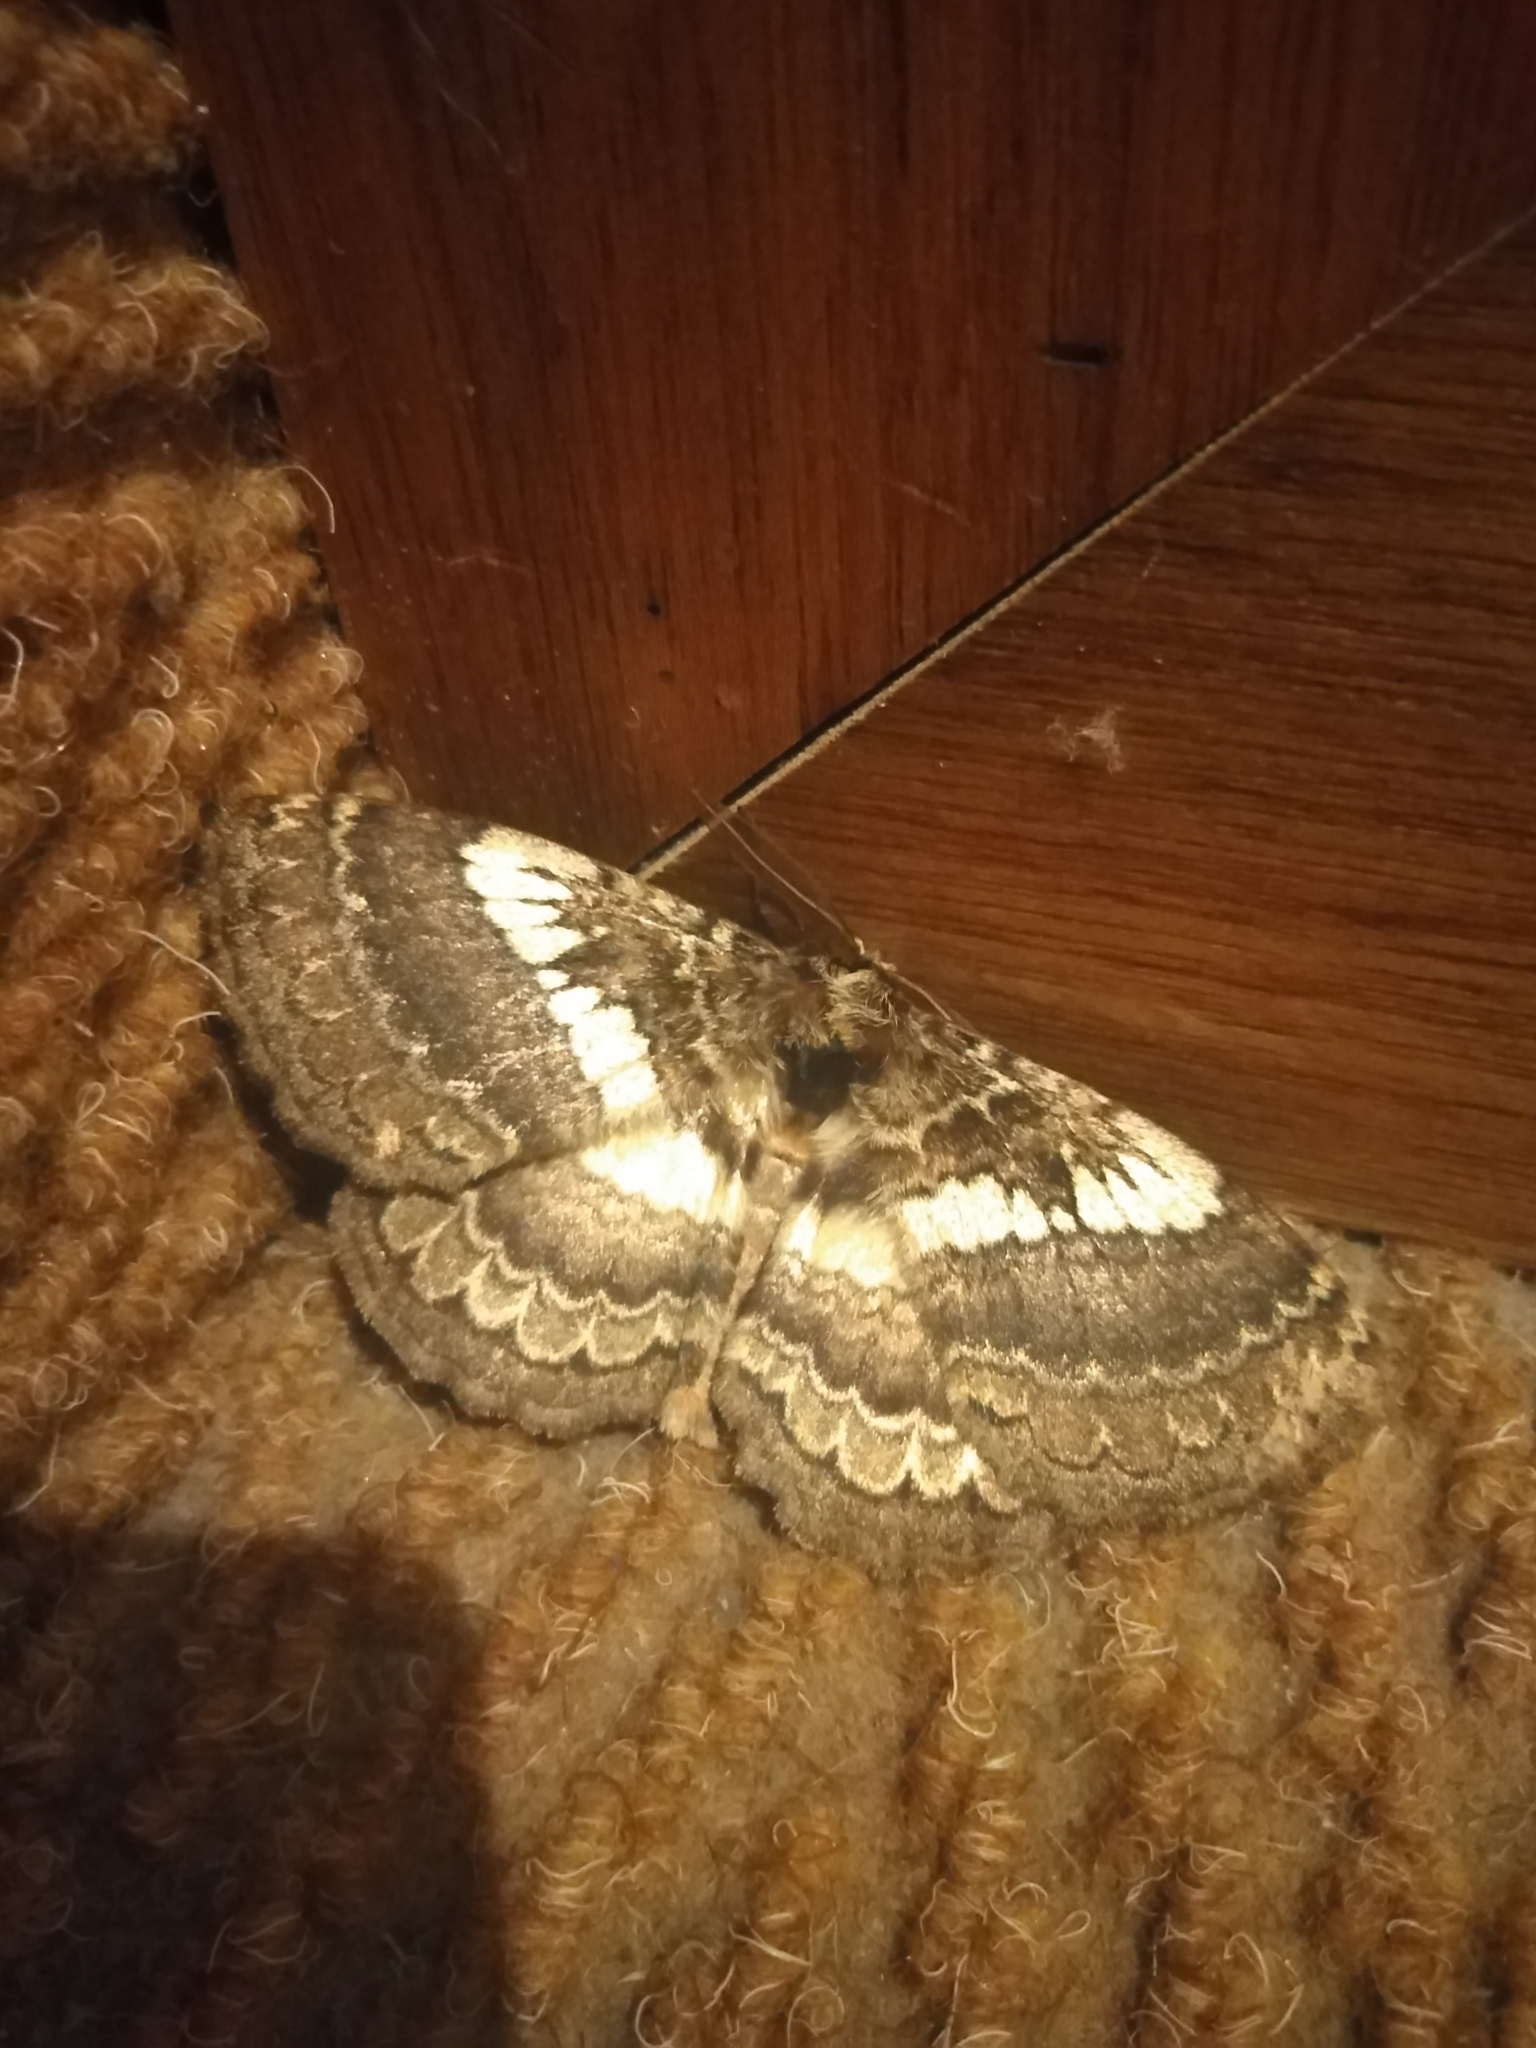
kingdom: Animalia
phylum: Arthropoda
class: Insecta
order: Lepidoptera
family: Eupterotidae
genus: Striphnopteryx
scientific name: Striphnopteryx edulis
